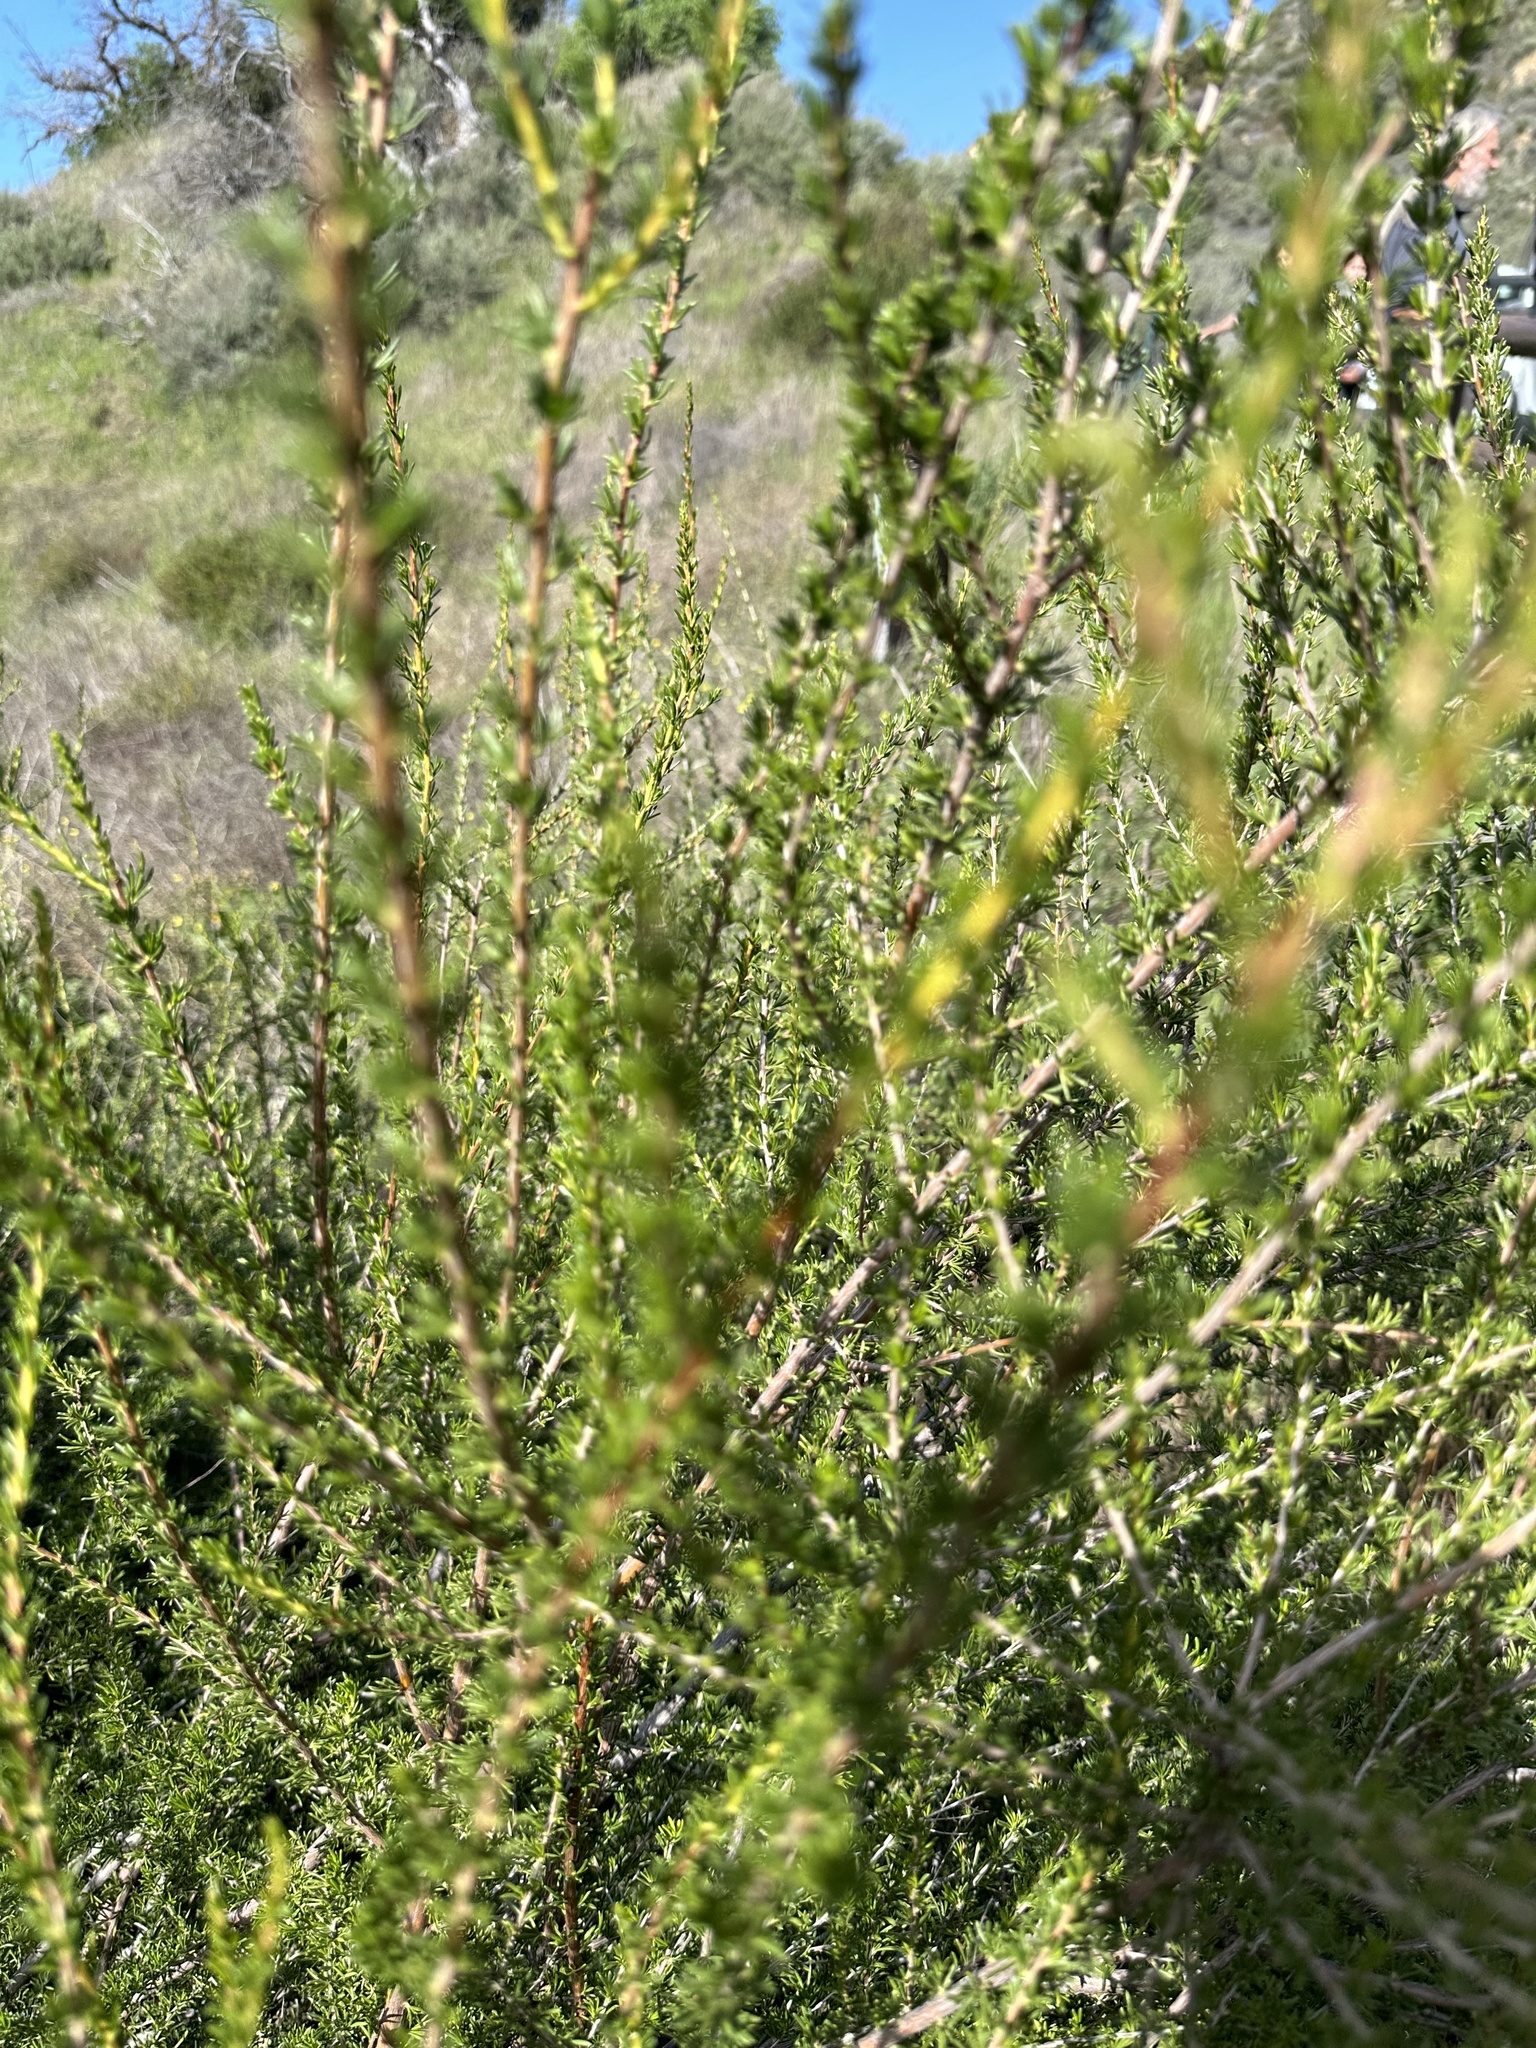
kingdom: Plantae
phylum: Tracheophyta
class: Magnoliopsida
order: Rosales
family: Rosaceae
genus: Adenostoma
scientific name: Adenostoma fasciculatum
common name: Chamise
